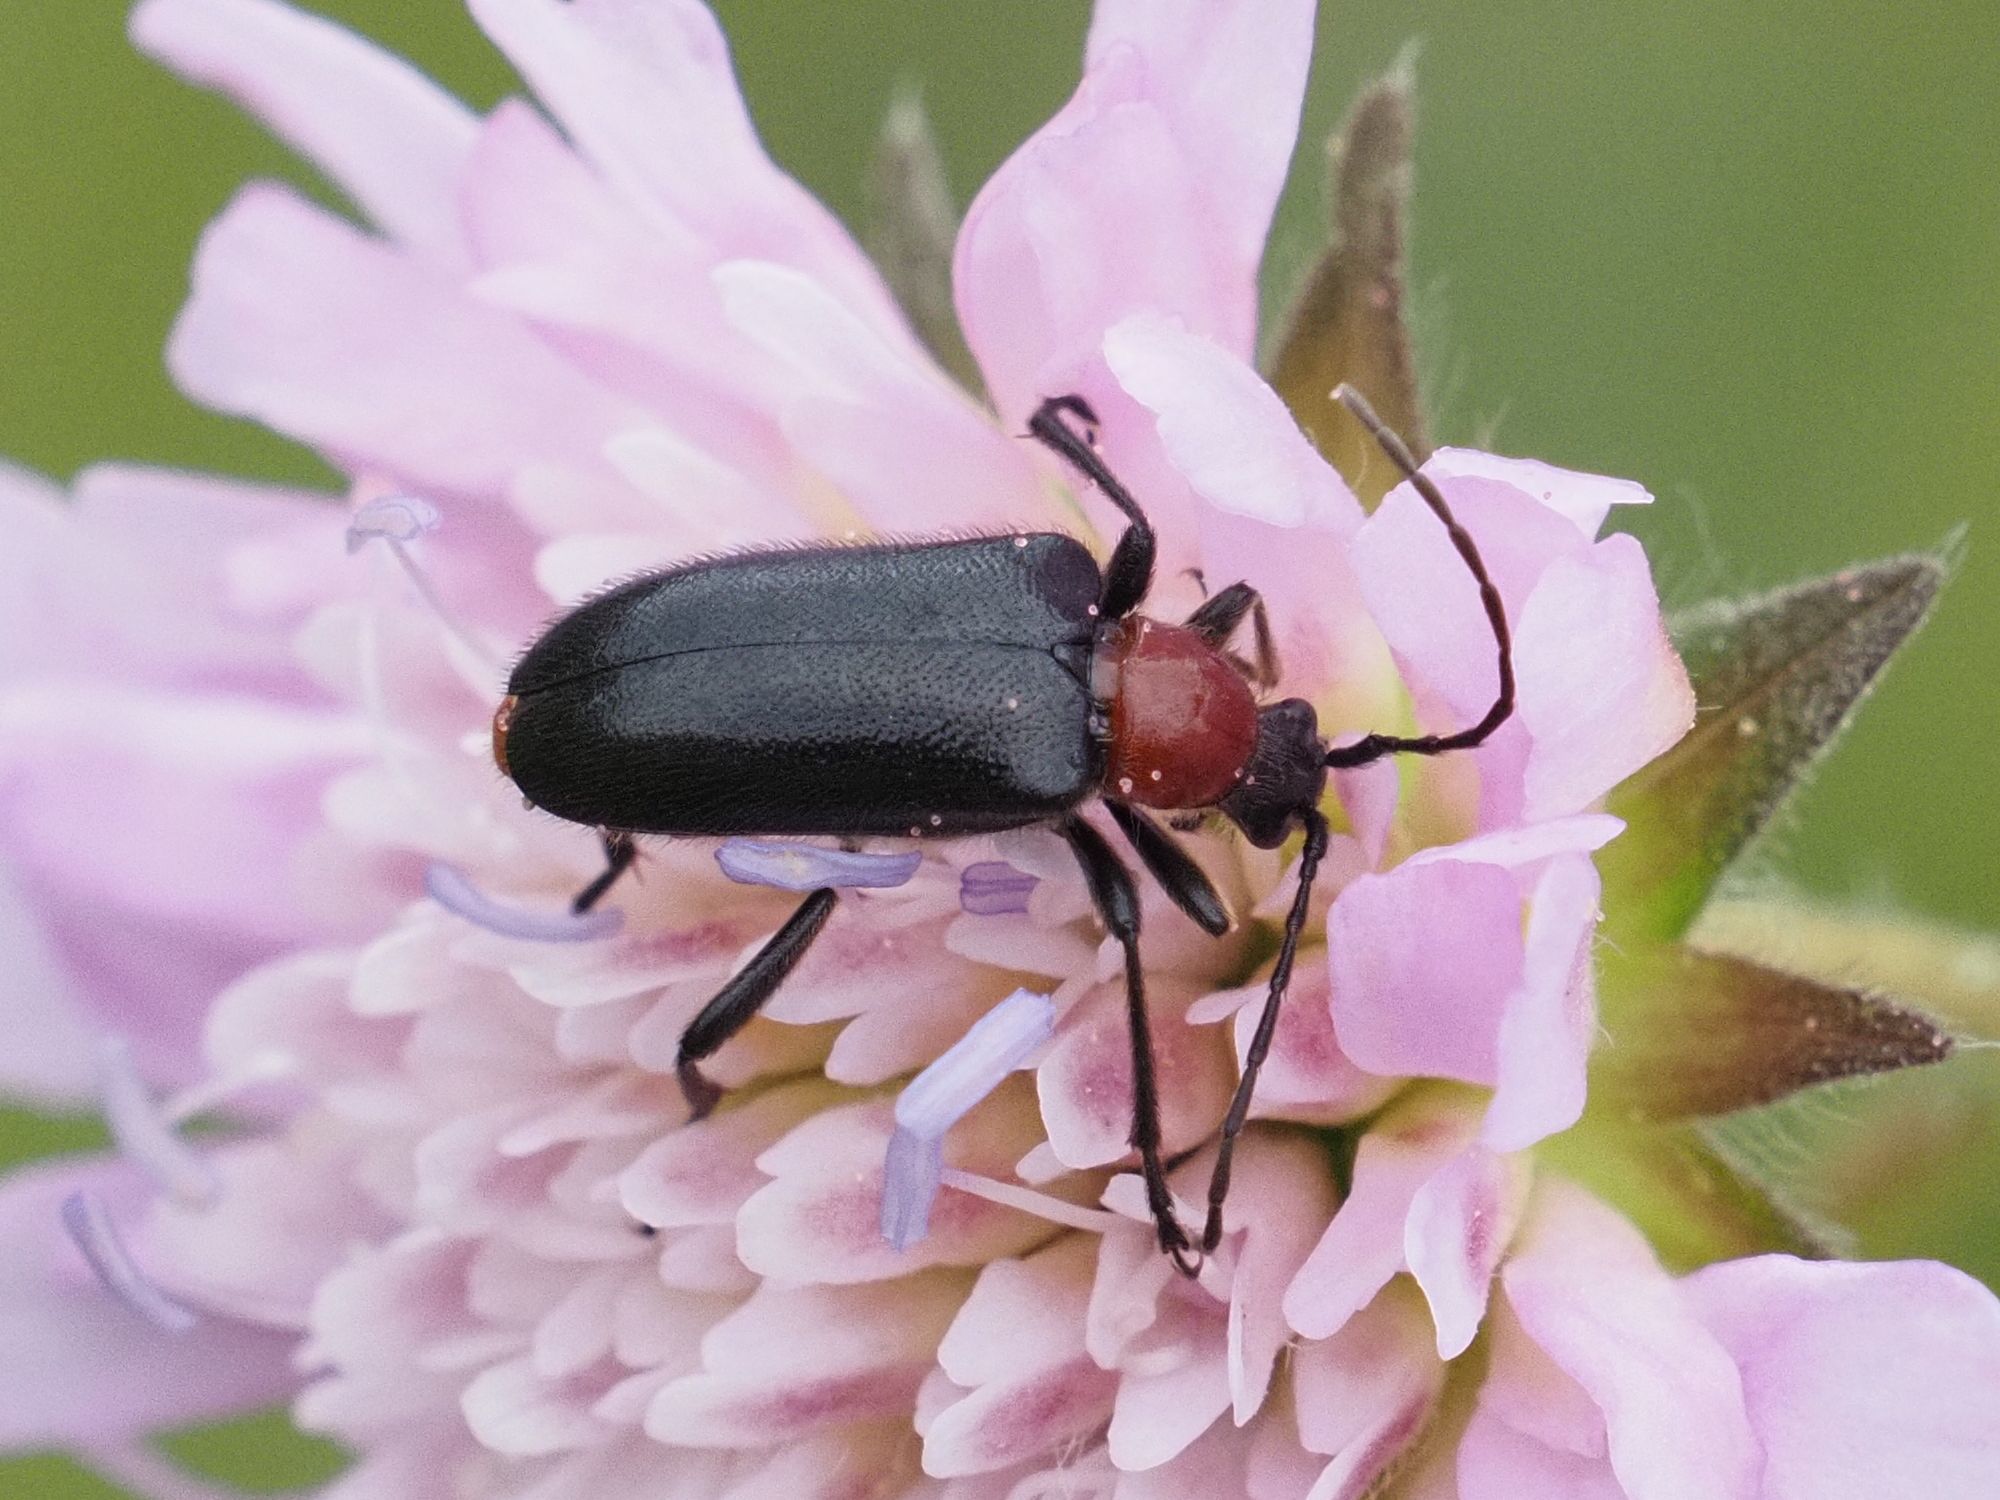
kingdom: Animalia
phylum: Arthropoda
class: Insecta
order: Coleoptera
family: Cerambycidae
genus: Dinoptera
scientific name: Dinoptera collaris
